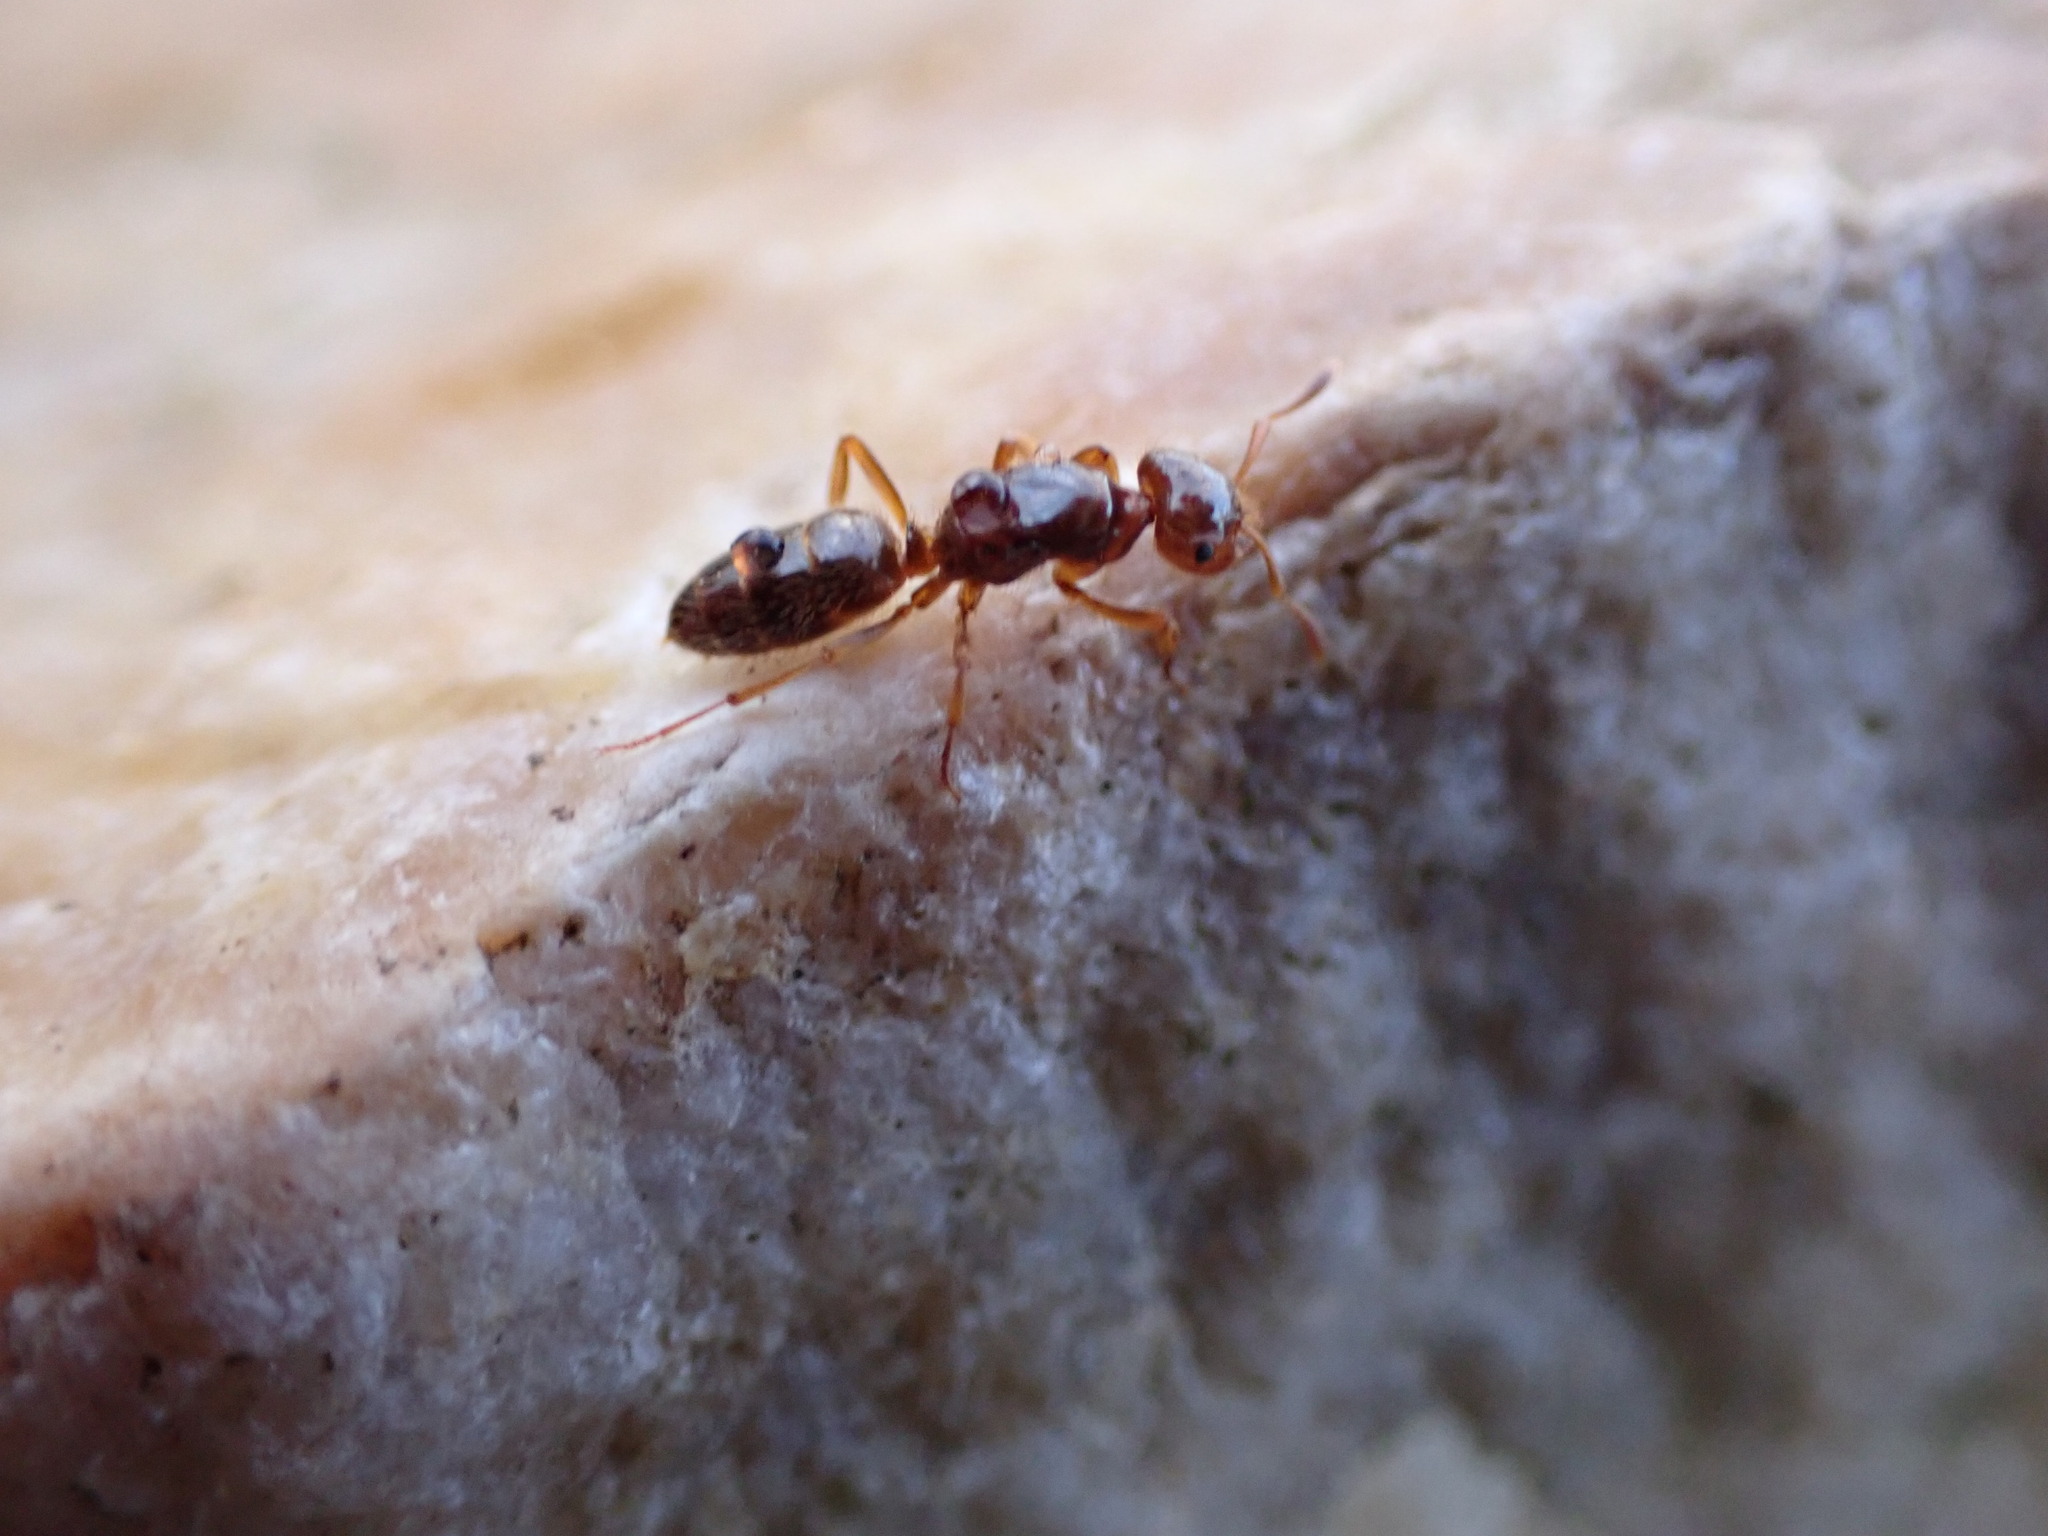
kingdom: Animalia
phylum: Arthropoda
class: Insecta
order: Hymenoptera
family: Formicidae
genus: Lasius
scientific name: Lasius claviger
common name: Common citronella ant
